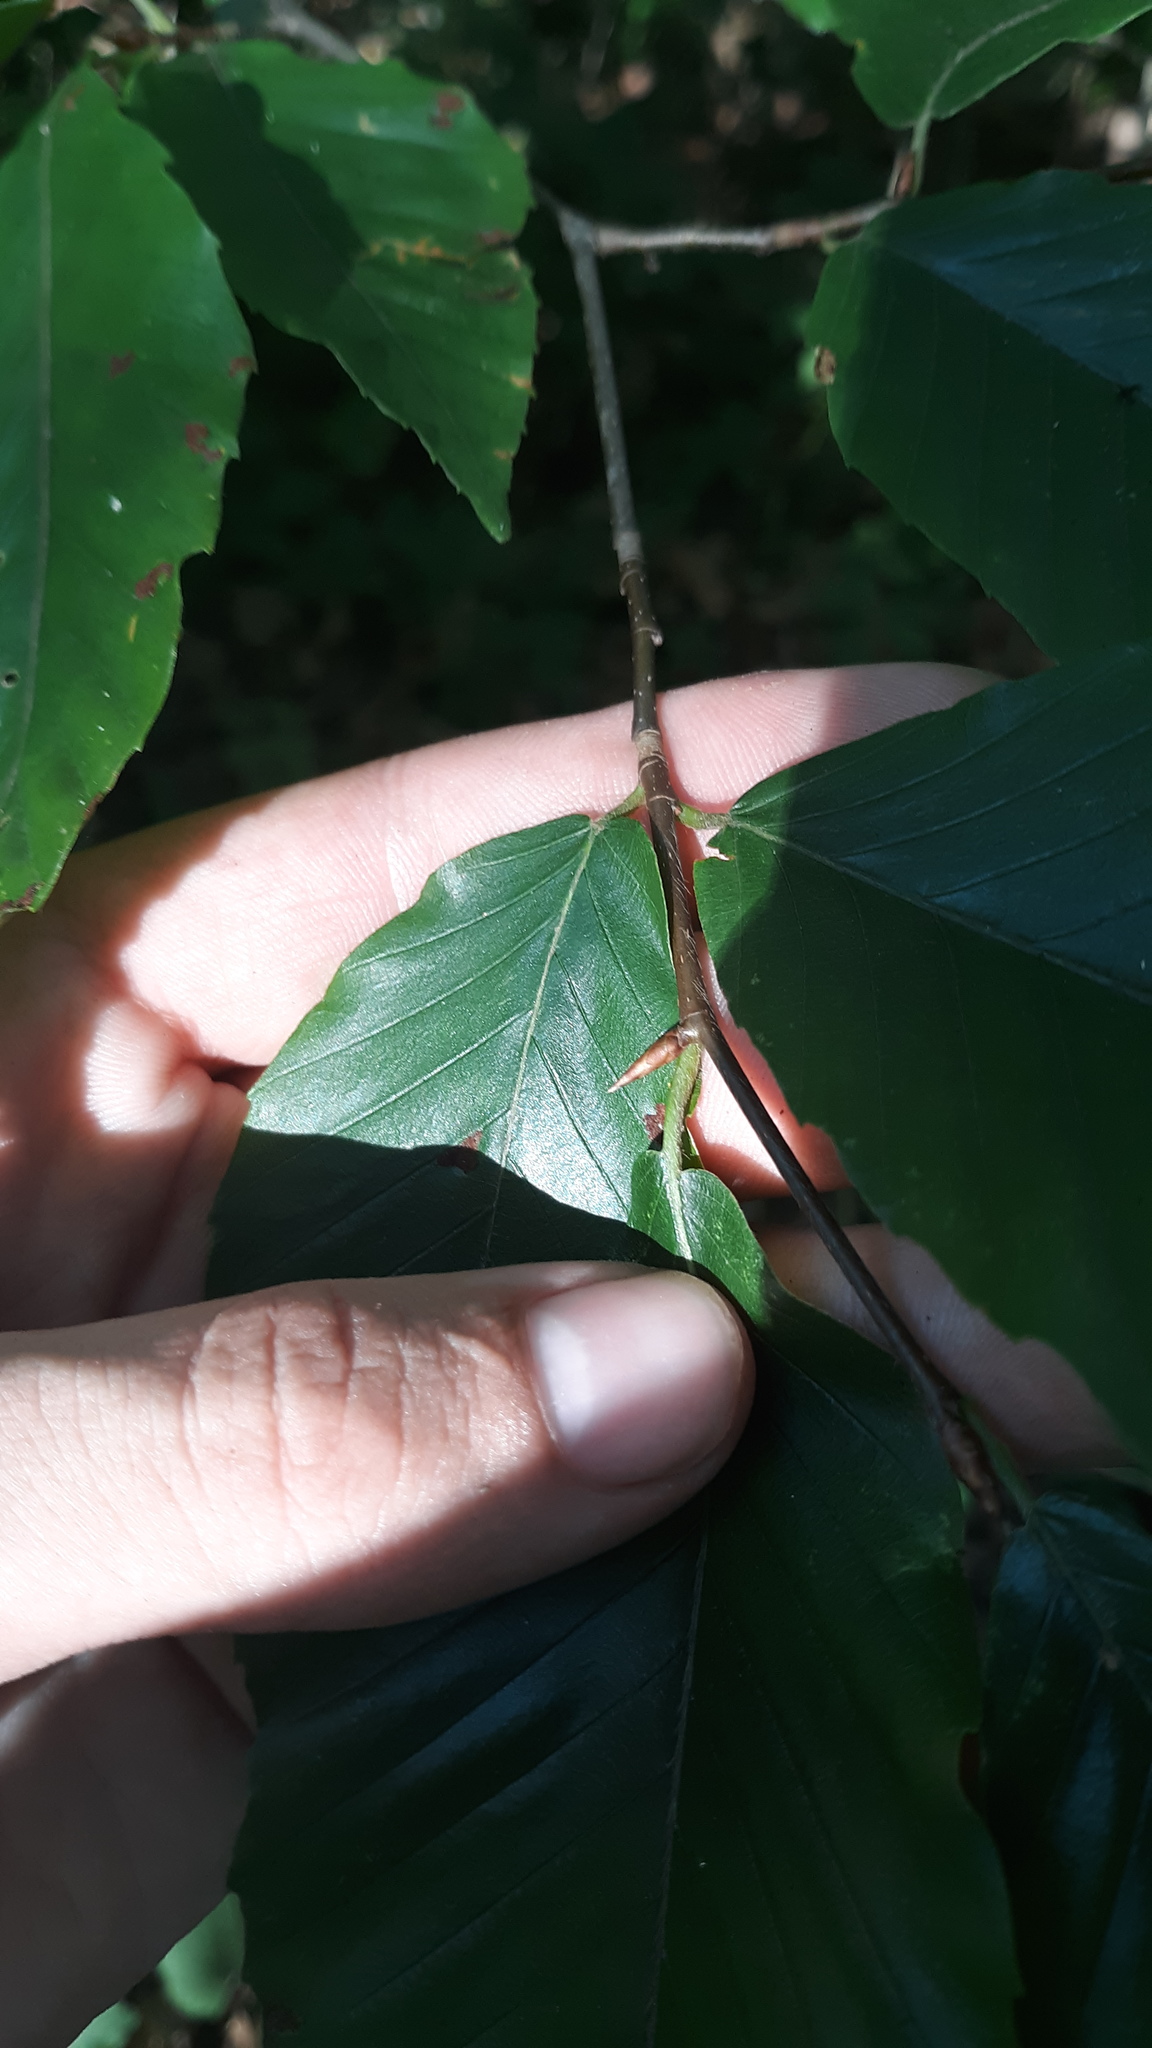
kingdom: Plantae
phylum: Tracheophyta
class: Magnoliopsida
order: Fagales
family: Fagaceae
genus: Fagus
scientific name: Fagus grandifolia
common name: American beech
